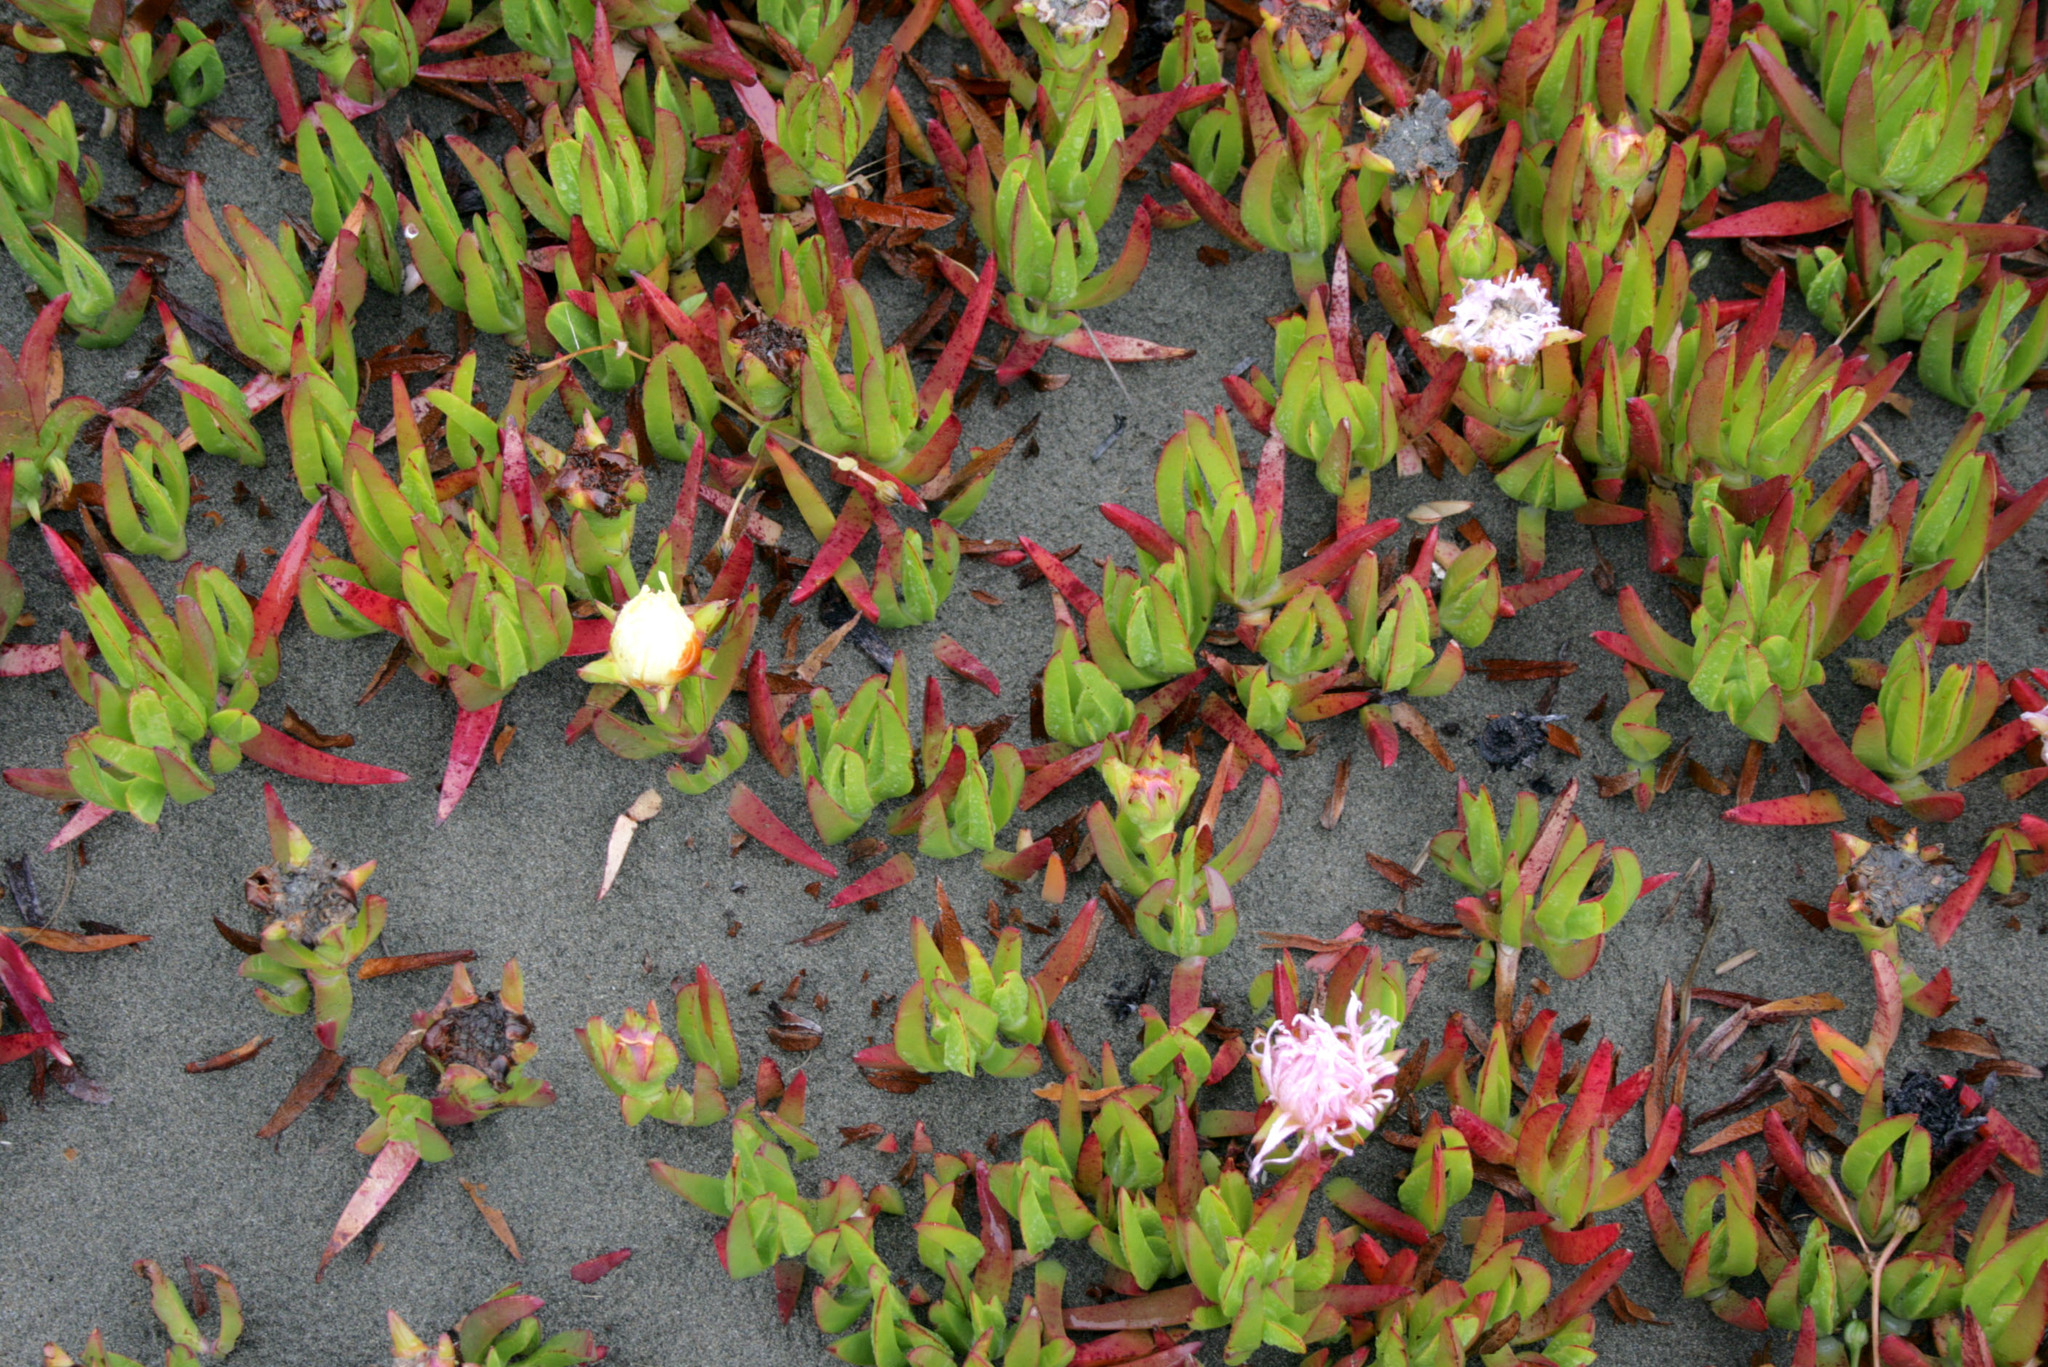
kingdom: Plantae
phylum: Tracheophyta
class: Magnoliopsida
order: Caryophyllales
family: Aizoaceae
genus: Carpobrotus
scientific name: Carpobrotus
